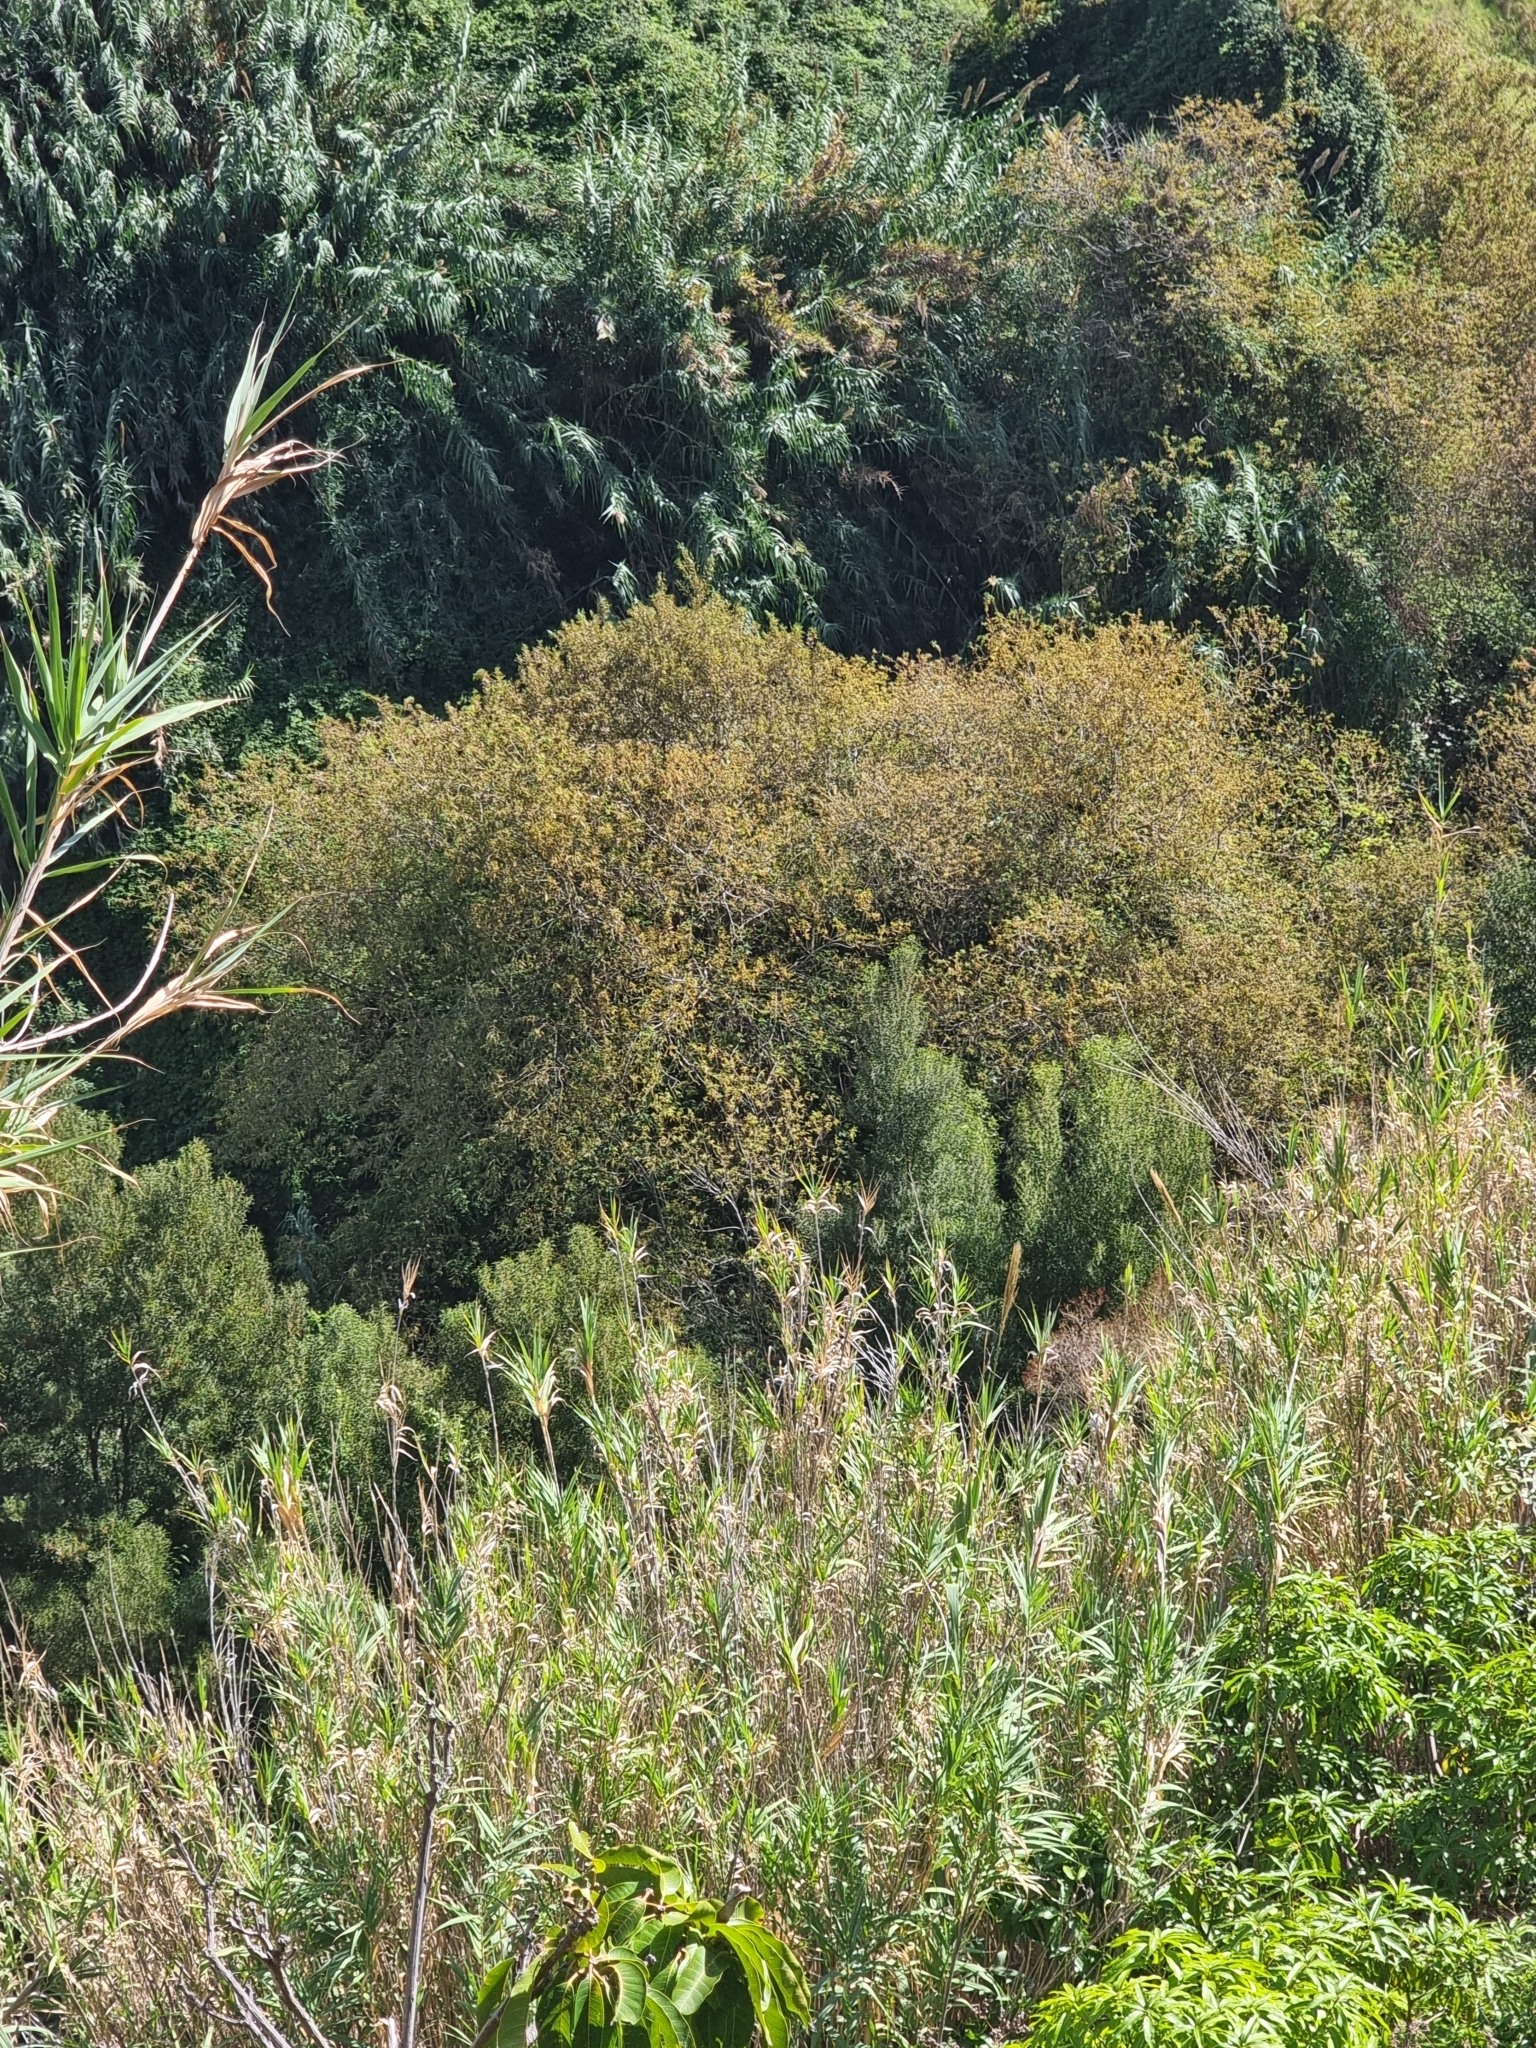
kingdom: Plantae
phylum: Tracheophyta
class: Magnoliopsida
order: Malpighiales
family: Salicaceae
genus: Salix
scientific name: Salix canariensis
